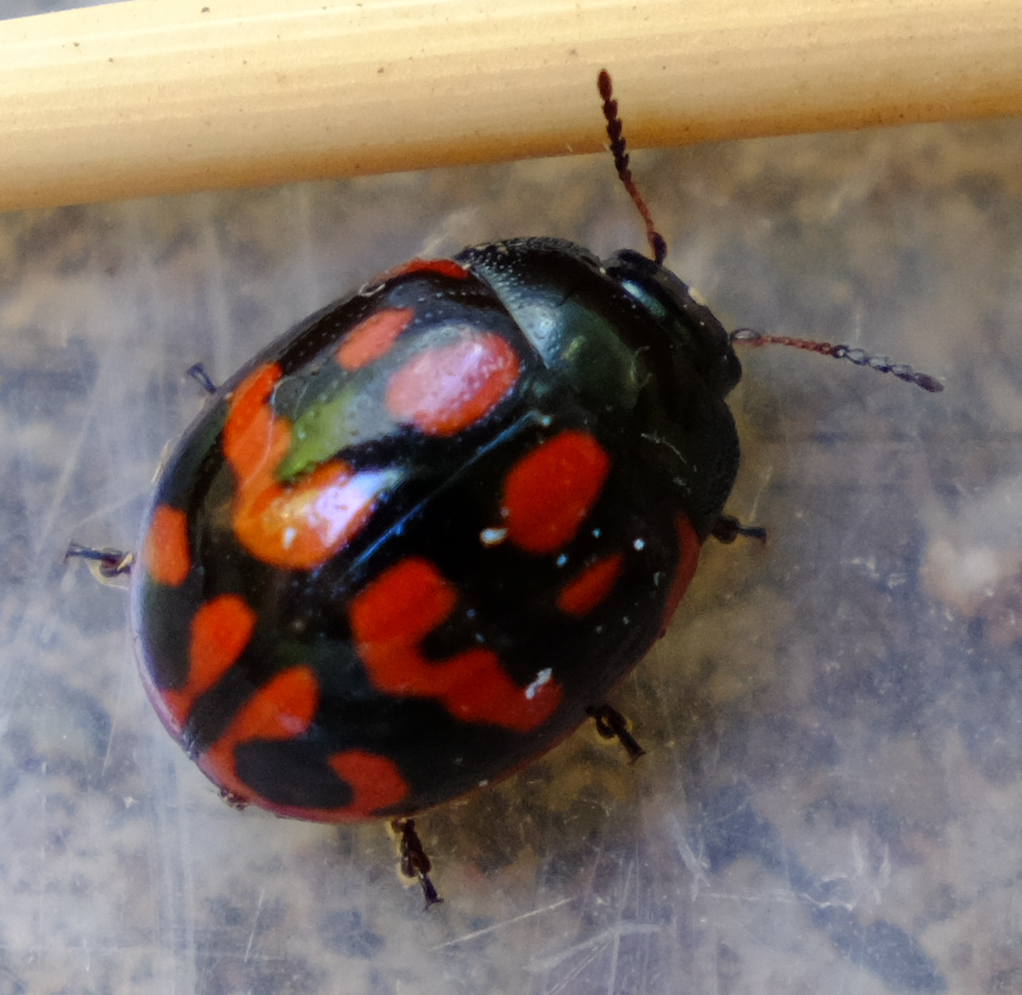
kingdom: Animalia
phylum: Arthropoda
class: Insecta
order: Coleoptera
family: Chrysomelidae
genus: Chrysolina
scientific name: Chrysolina
